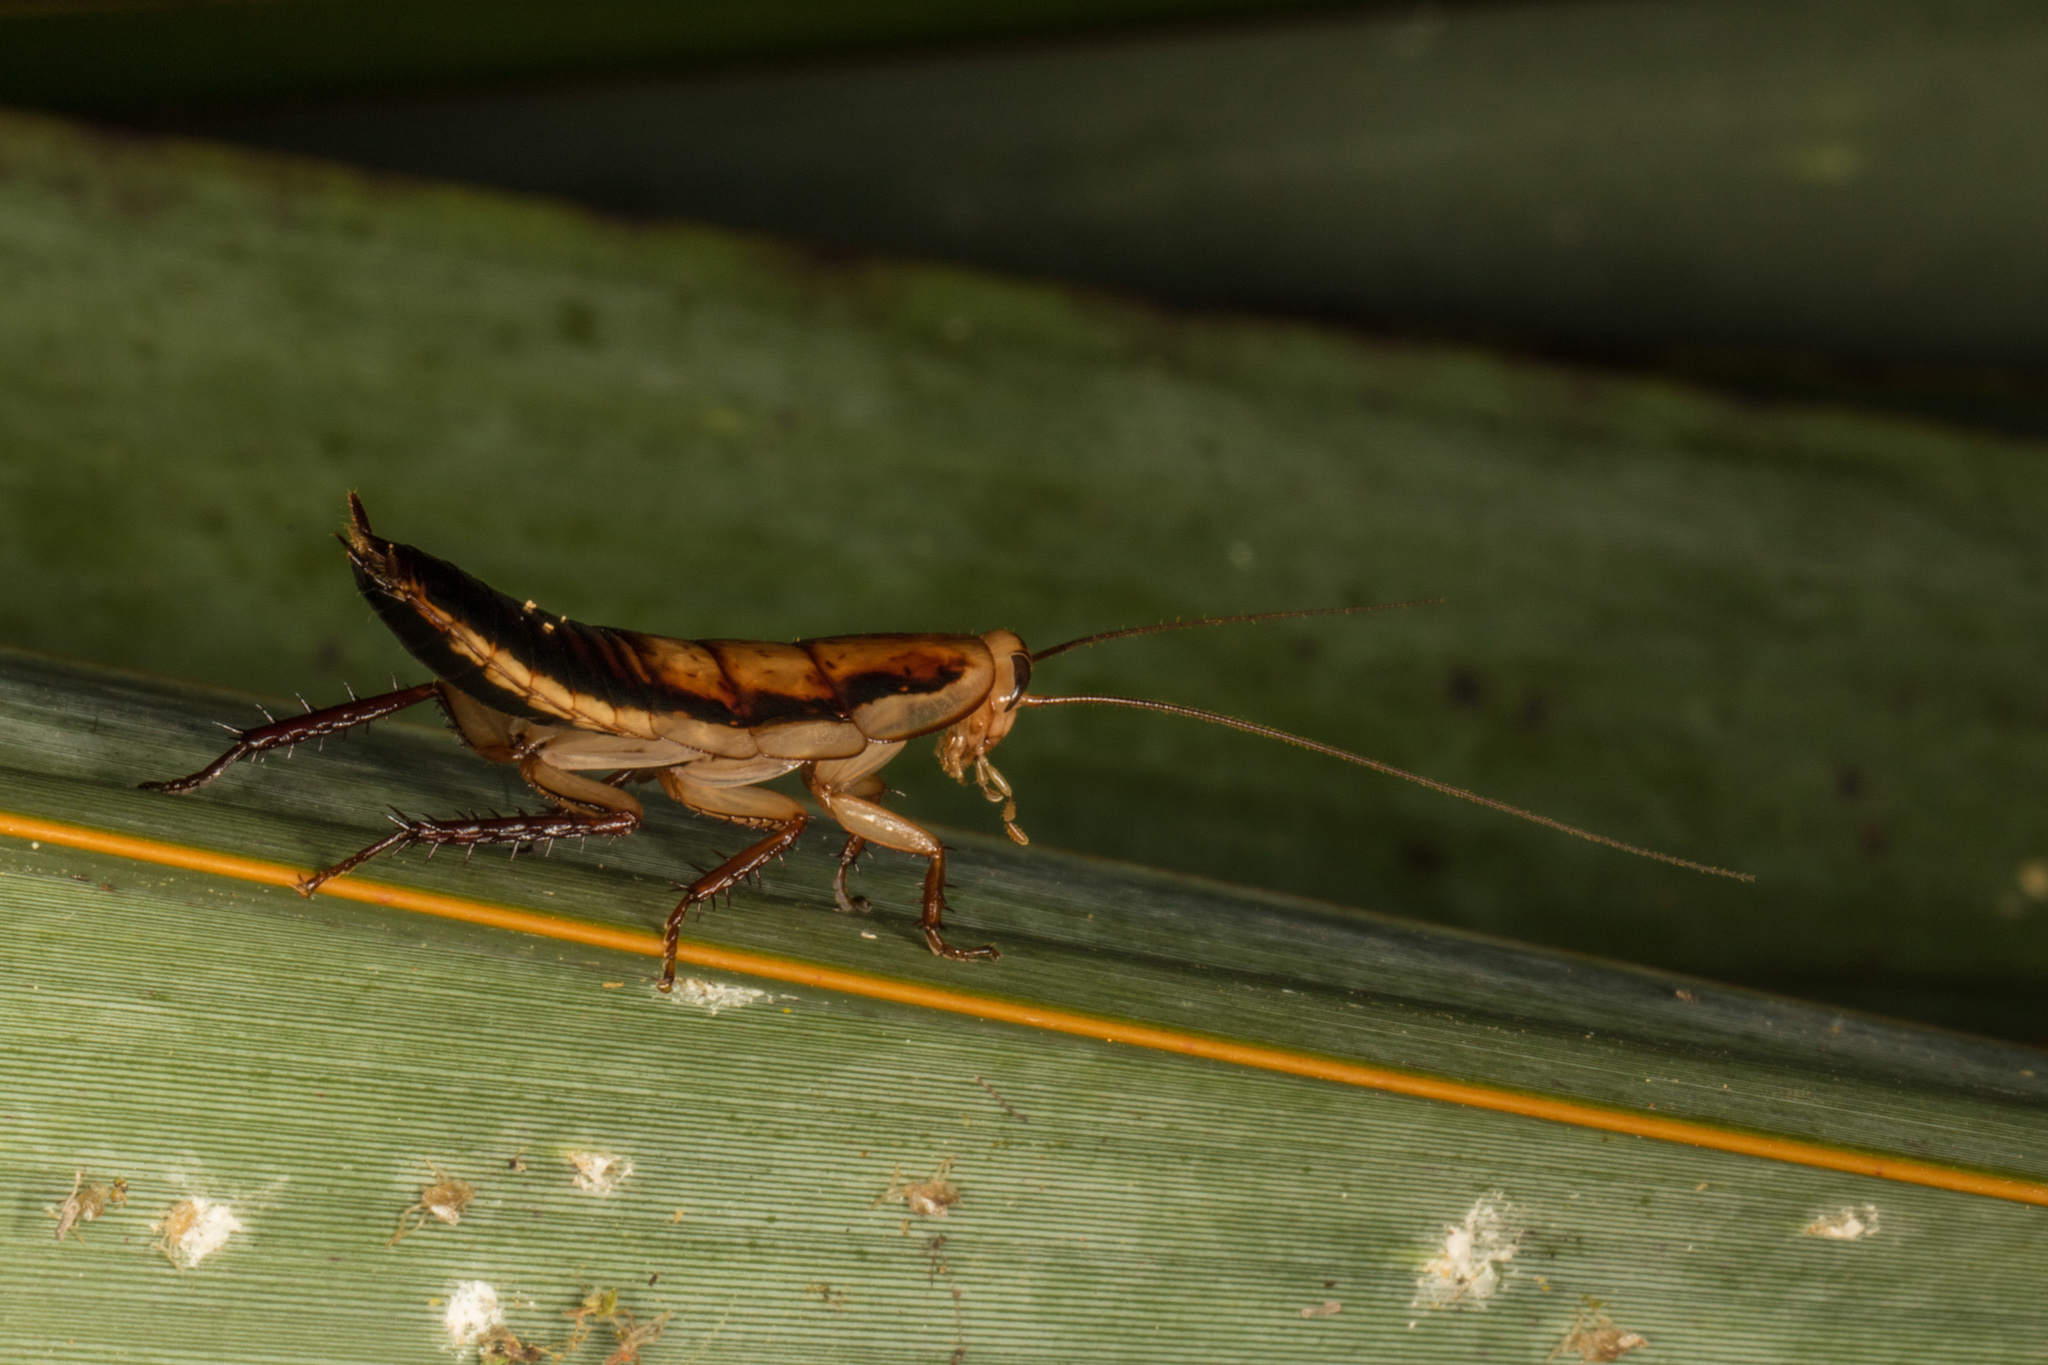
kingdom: Animalia
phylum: Arthropoda
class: Insecta
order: Blattodea
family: Blattidae
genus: Drymaplaneta
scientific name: Drymaplaneta heydeniana
